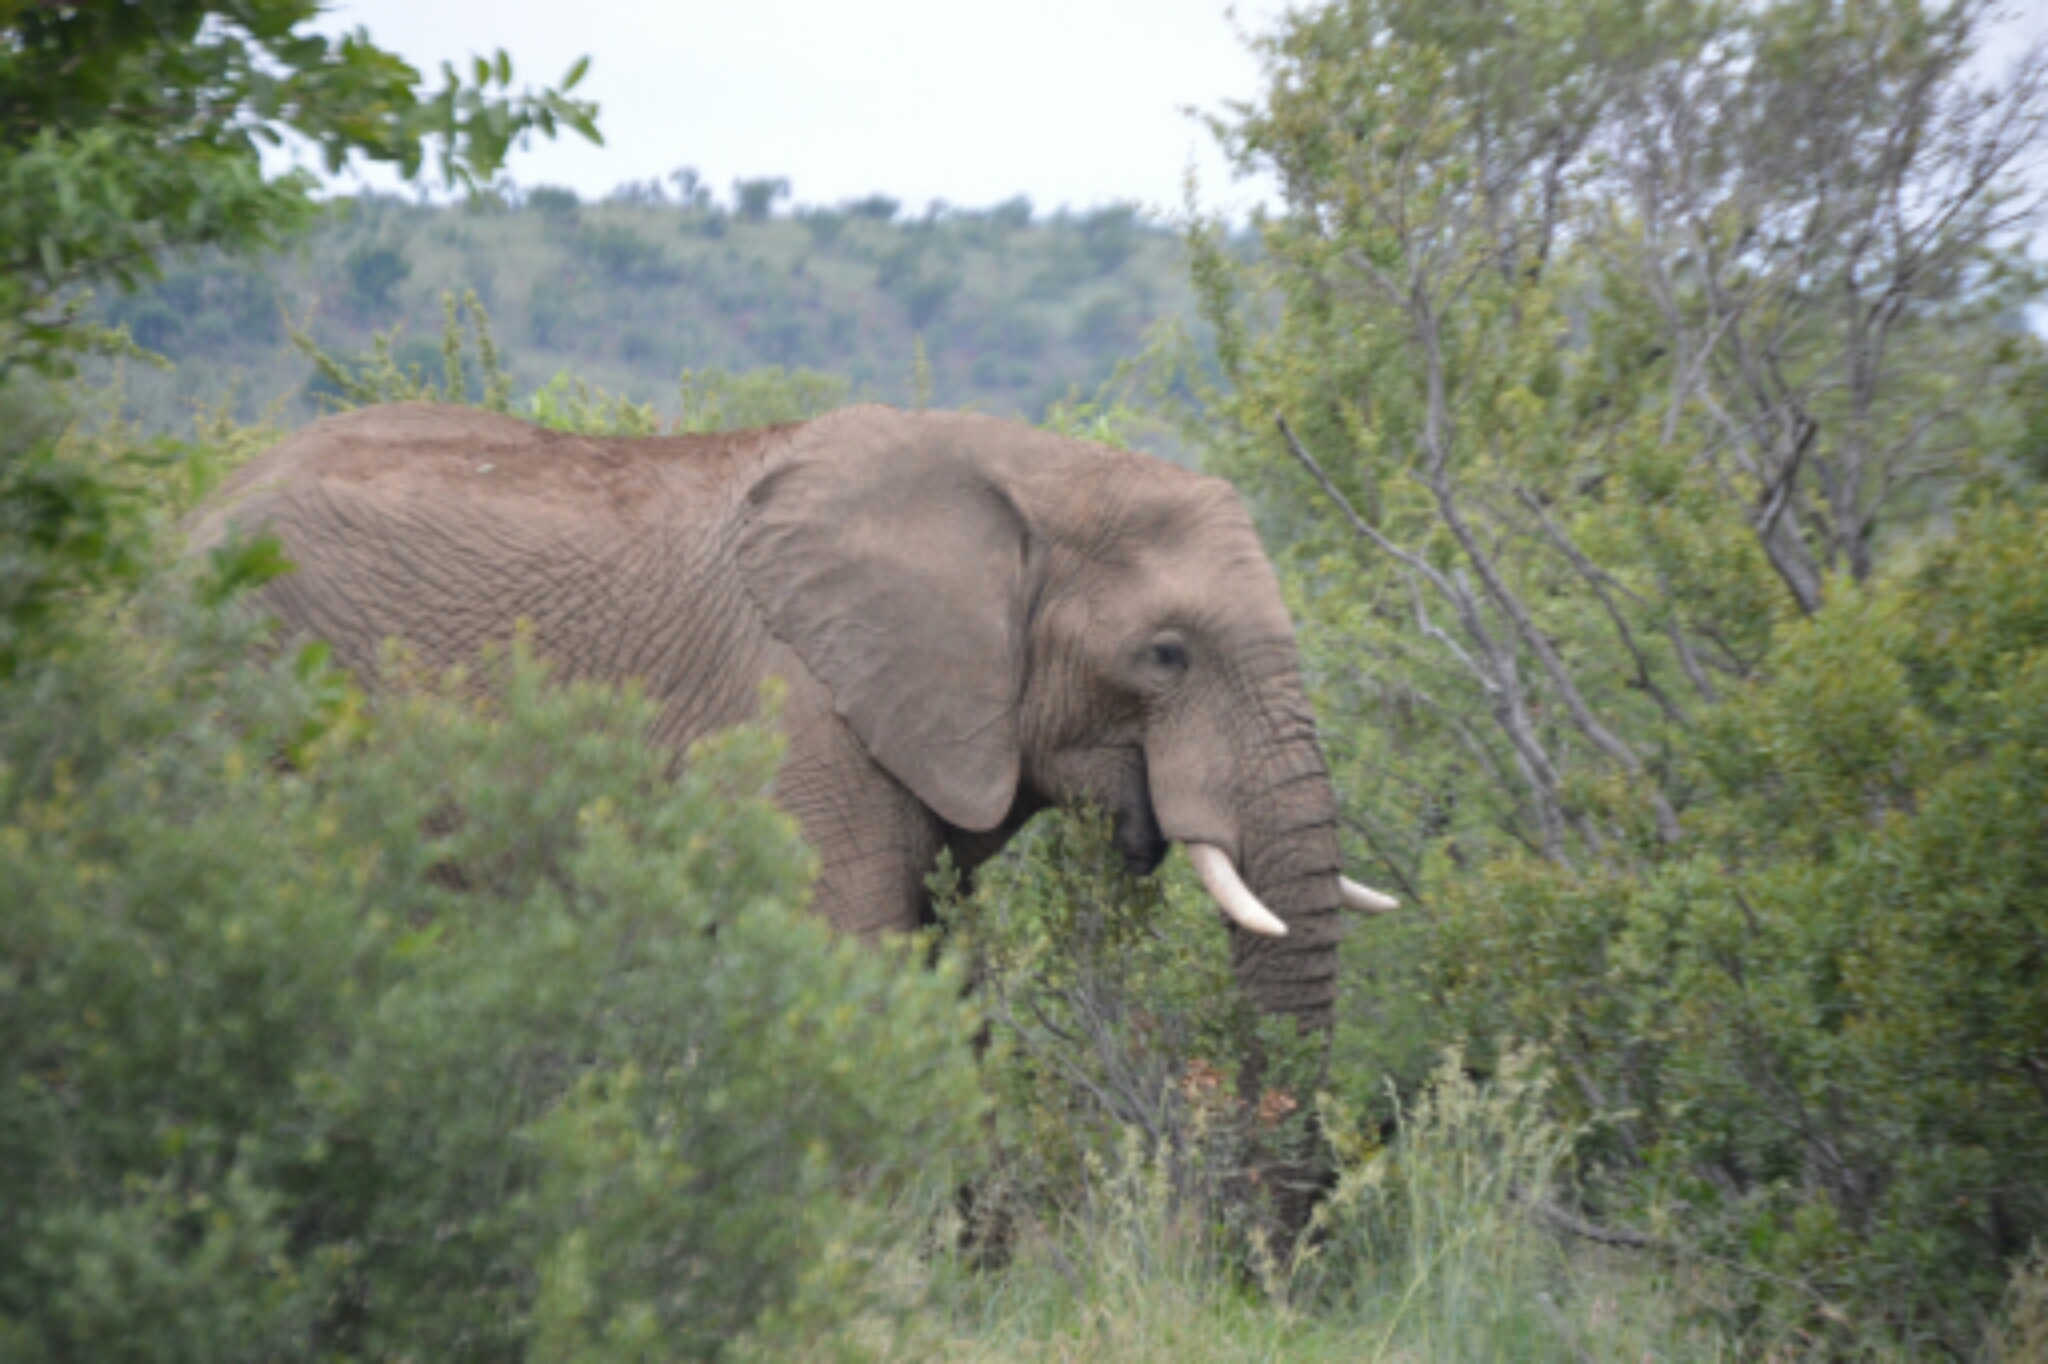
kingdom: Animalia
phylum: Chordata
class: Mammalia
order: Proboscidea
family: Elephantidae
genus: Loxodonta
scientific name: Loxodonta africana
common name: African elephant
